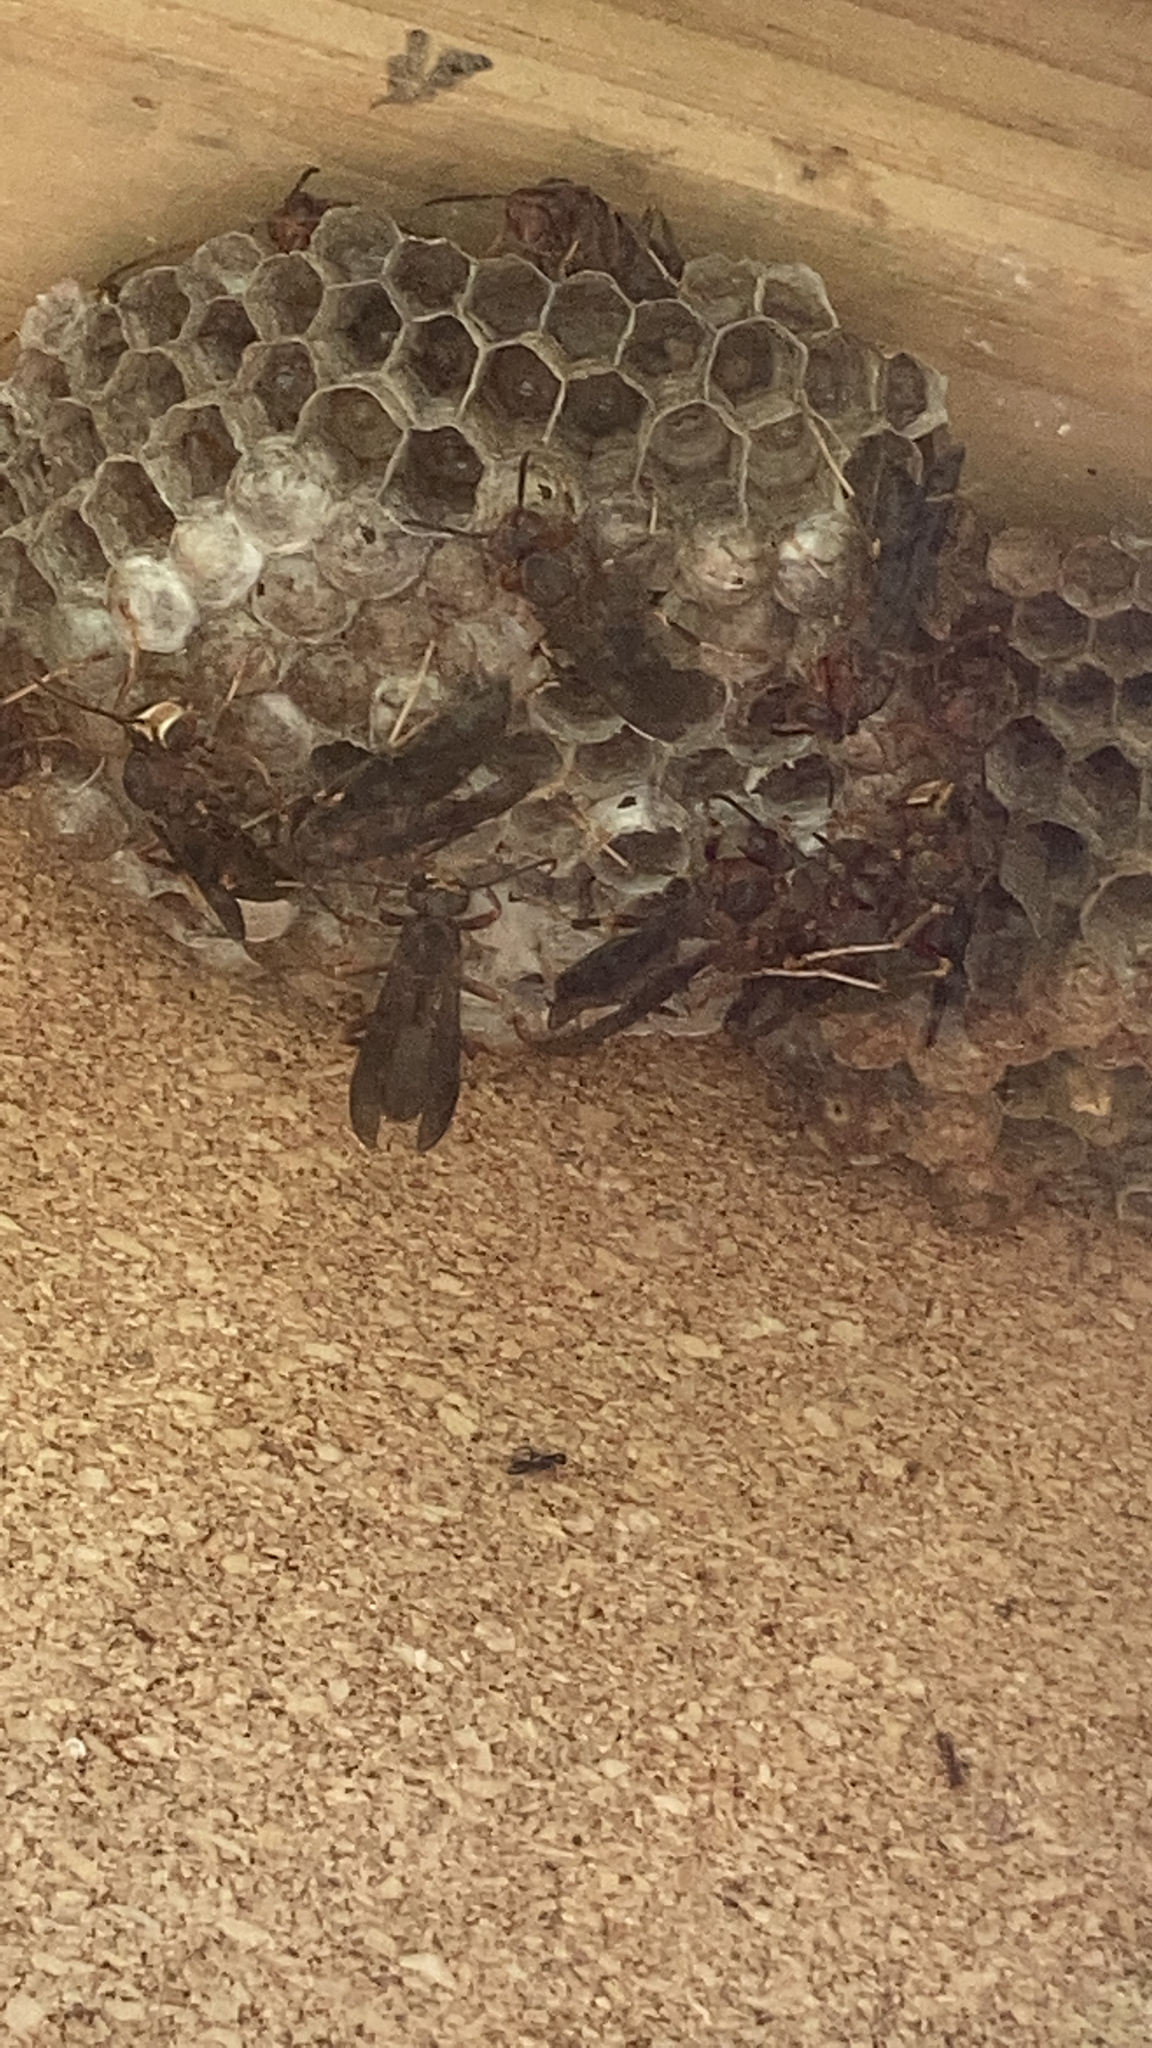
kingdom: Animalia
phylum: Arthropoda
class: Insecta
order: Hymenoptera
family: Eumenidae
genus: Polistes
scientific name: Polistes metricus
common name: Metric paper wasp
